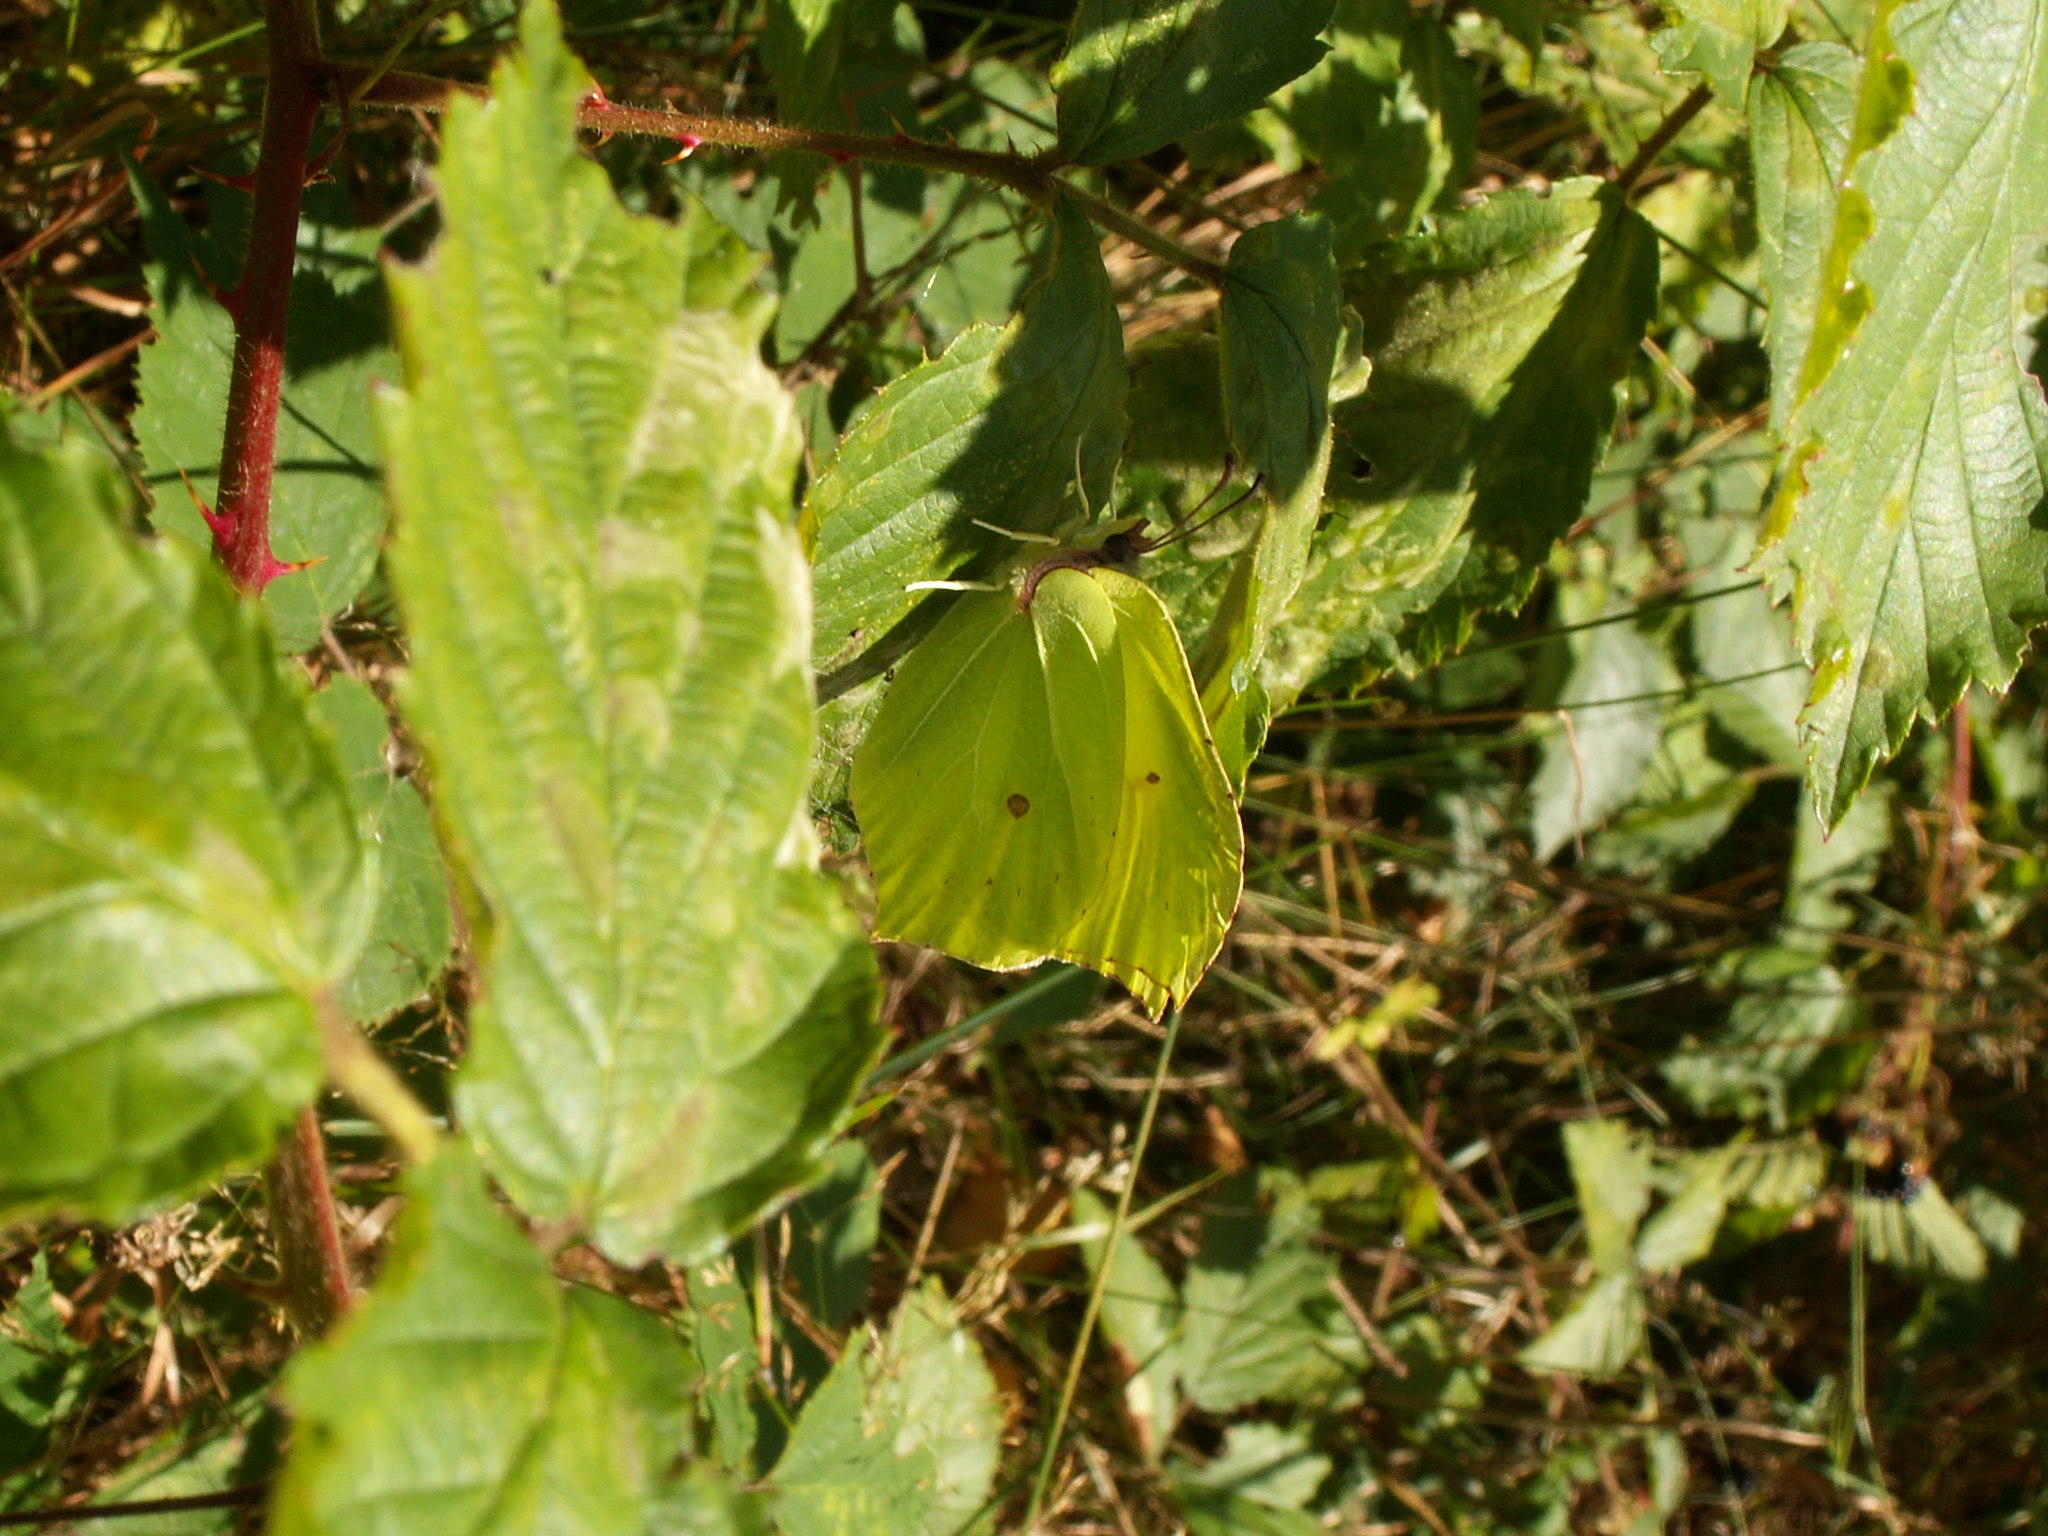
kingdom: Animalia
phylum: Arthropoda
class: Insecta
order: Lepidoptera
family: Pieridae
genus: Gonepteryx
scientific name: Gonepteryx rhamni
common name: Brimstone
